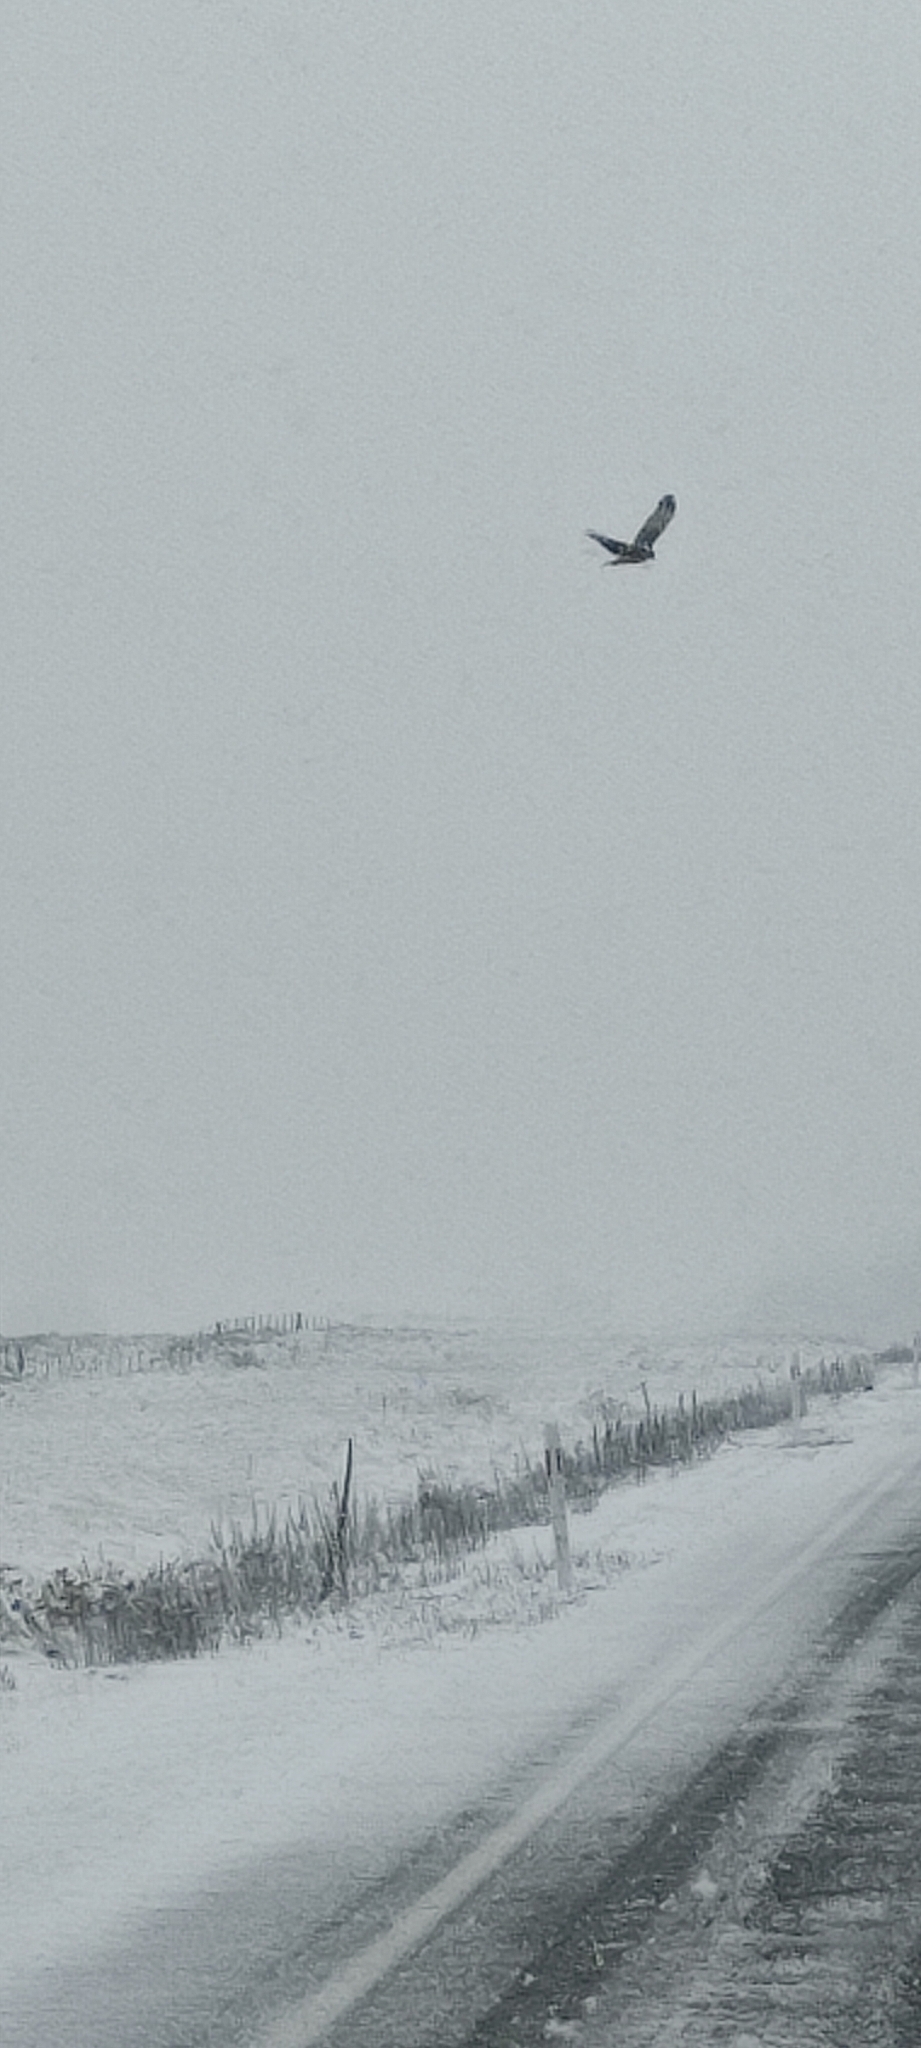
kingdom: Animalia
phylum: Chordata
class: Aves
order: Accipitriformes
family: Accipitridae
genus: Circus
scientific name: Circus approximans
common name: Swamp harrier
